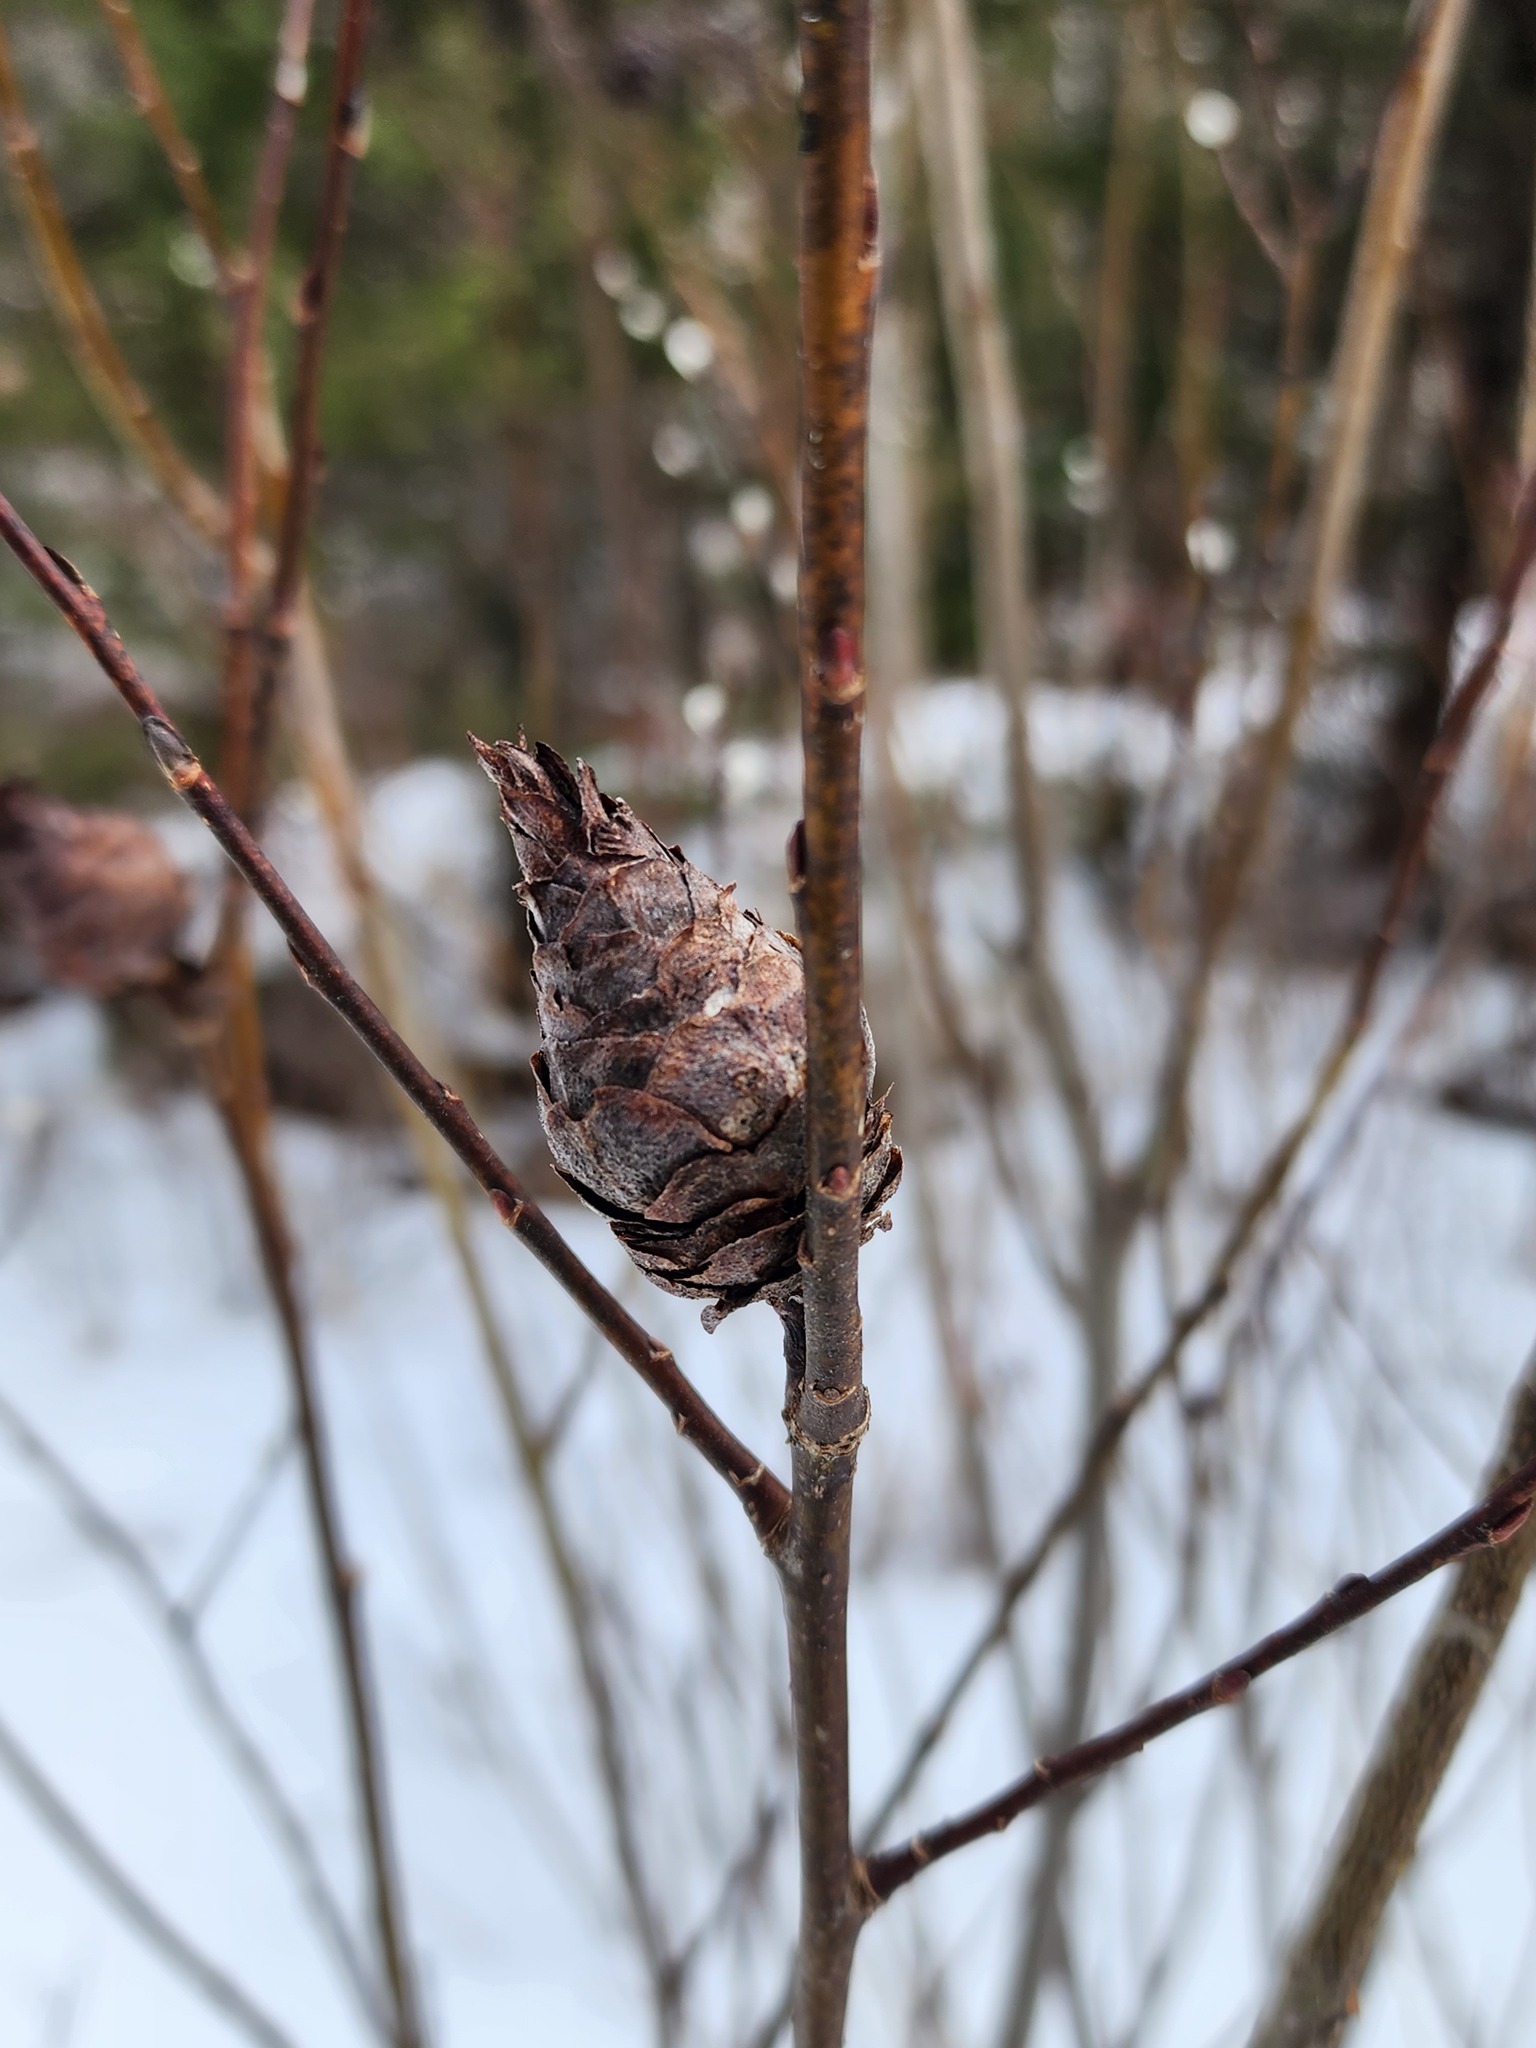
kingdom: Animalia
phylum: Arthropoda
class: Insecta
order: Diptera
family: Cecidomyiidae
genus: Rabdophaga
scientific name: Rabdophaga strobiloides
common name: Willow pinecone gall midge
